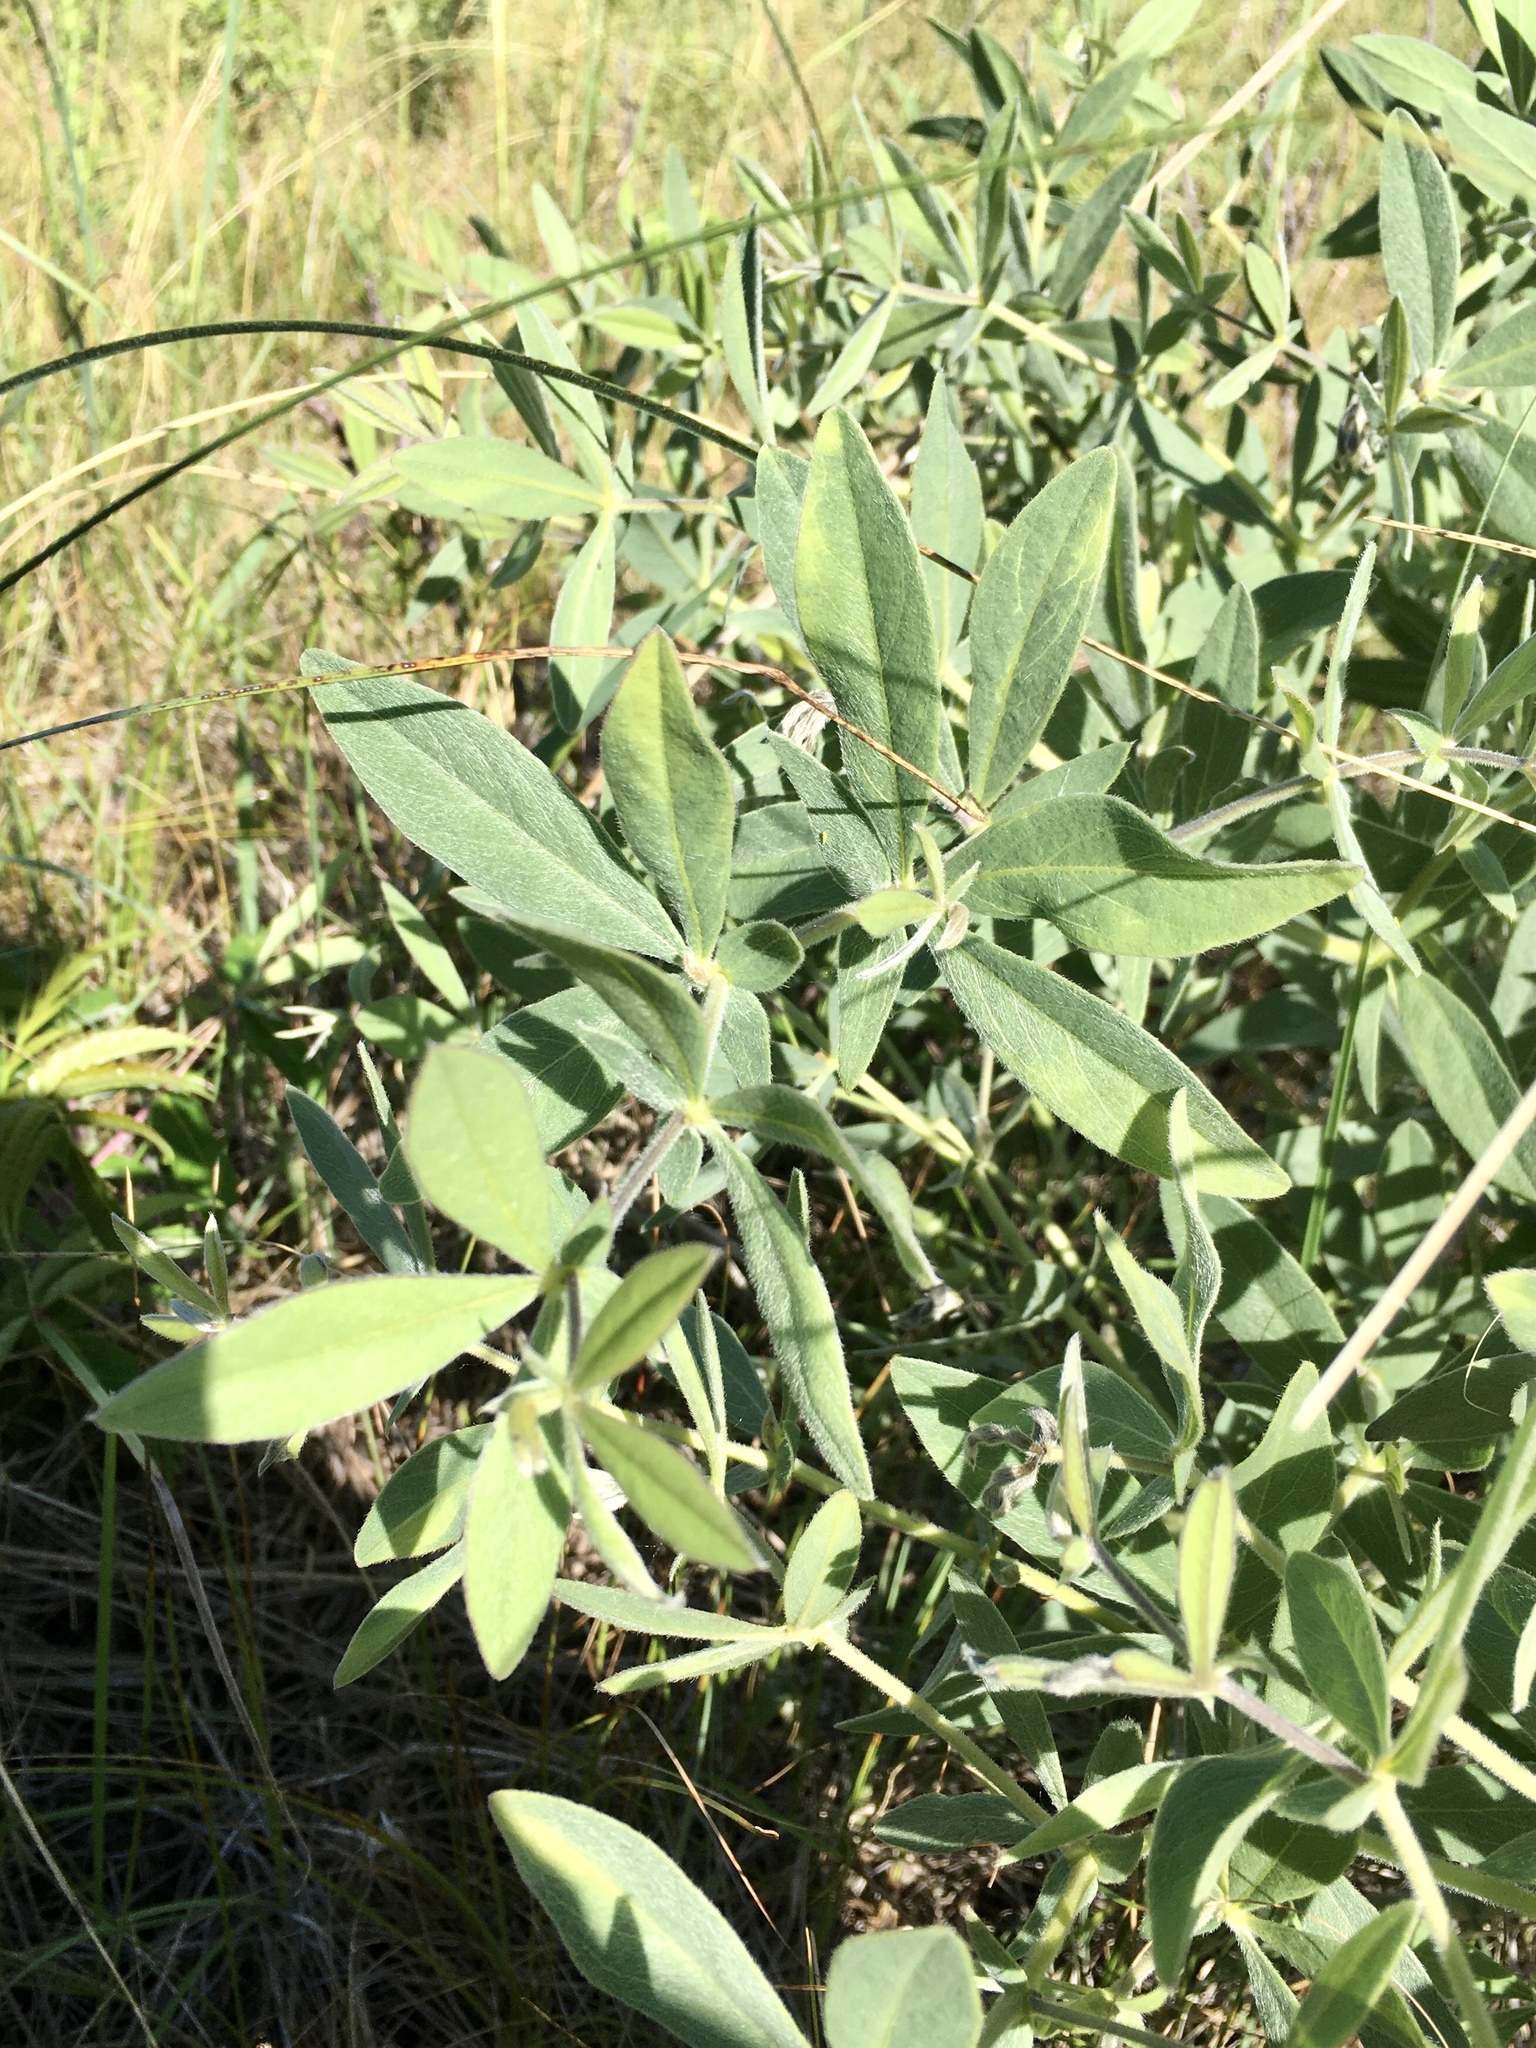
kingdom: Plantae
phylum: Tracheophyta
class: Magnoliopsida
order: Fabales
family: Fabaceae
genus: Baptisia
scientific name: Baptisia bracteata
